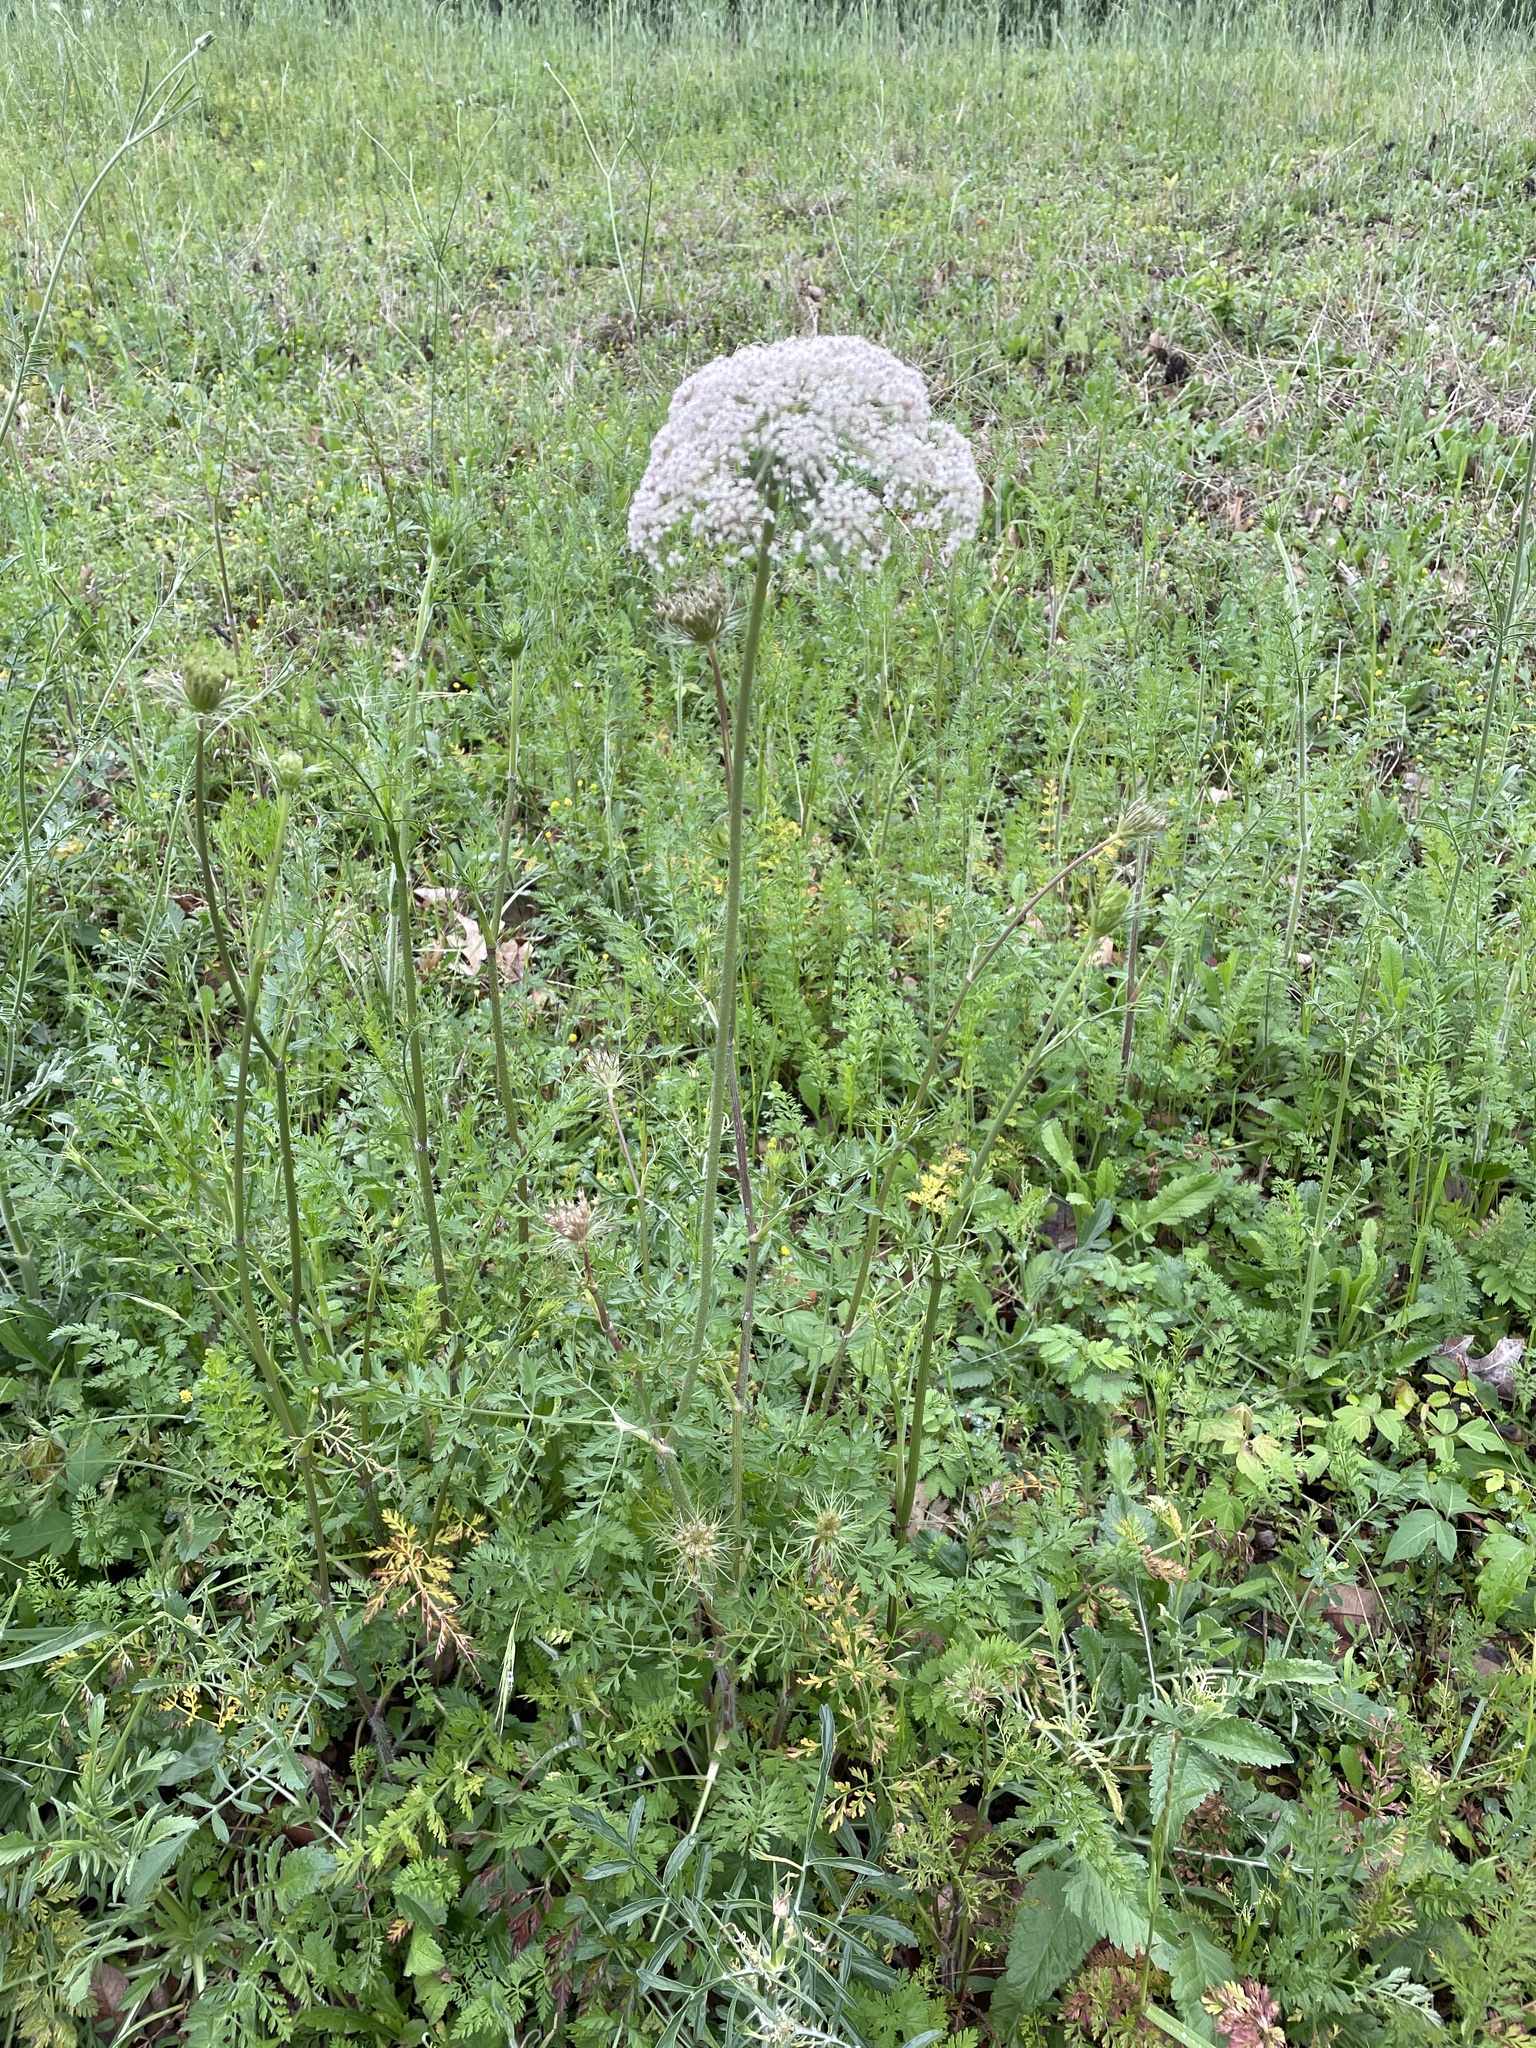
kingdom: Plantae
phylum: Tracheophyta
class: Magnoliopsida
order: Apiales
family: Apiaceae
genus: Daucus
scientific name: Daucus carota
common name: Wild carrot
